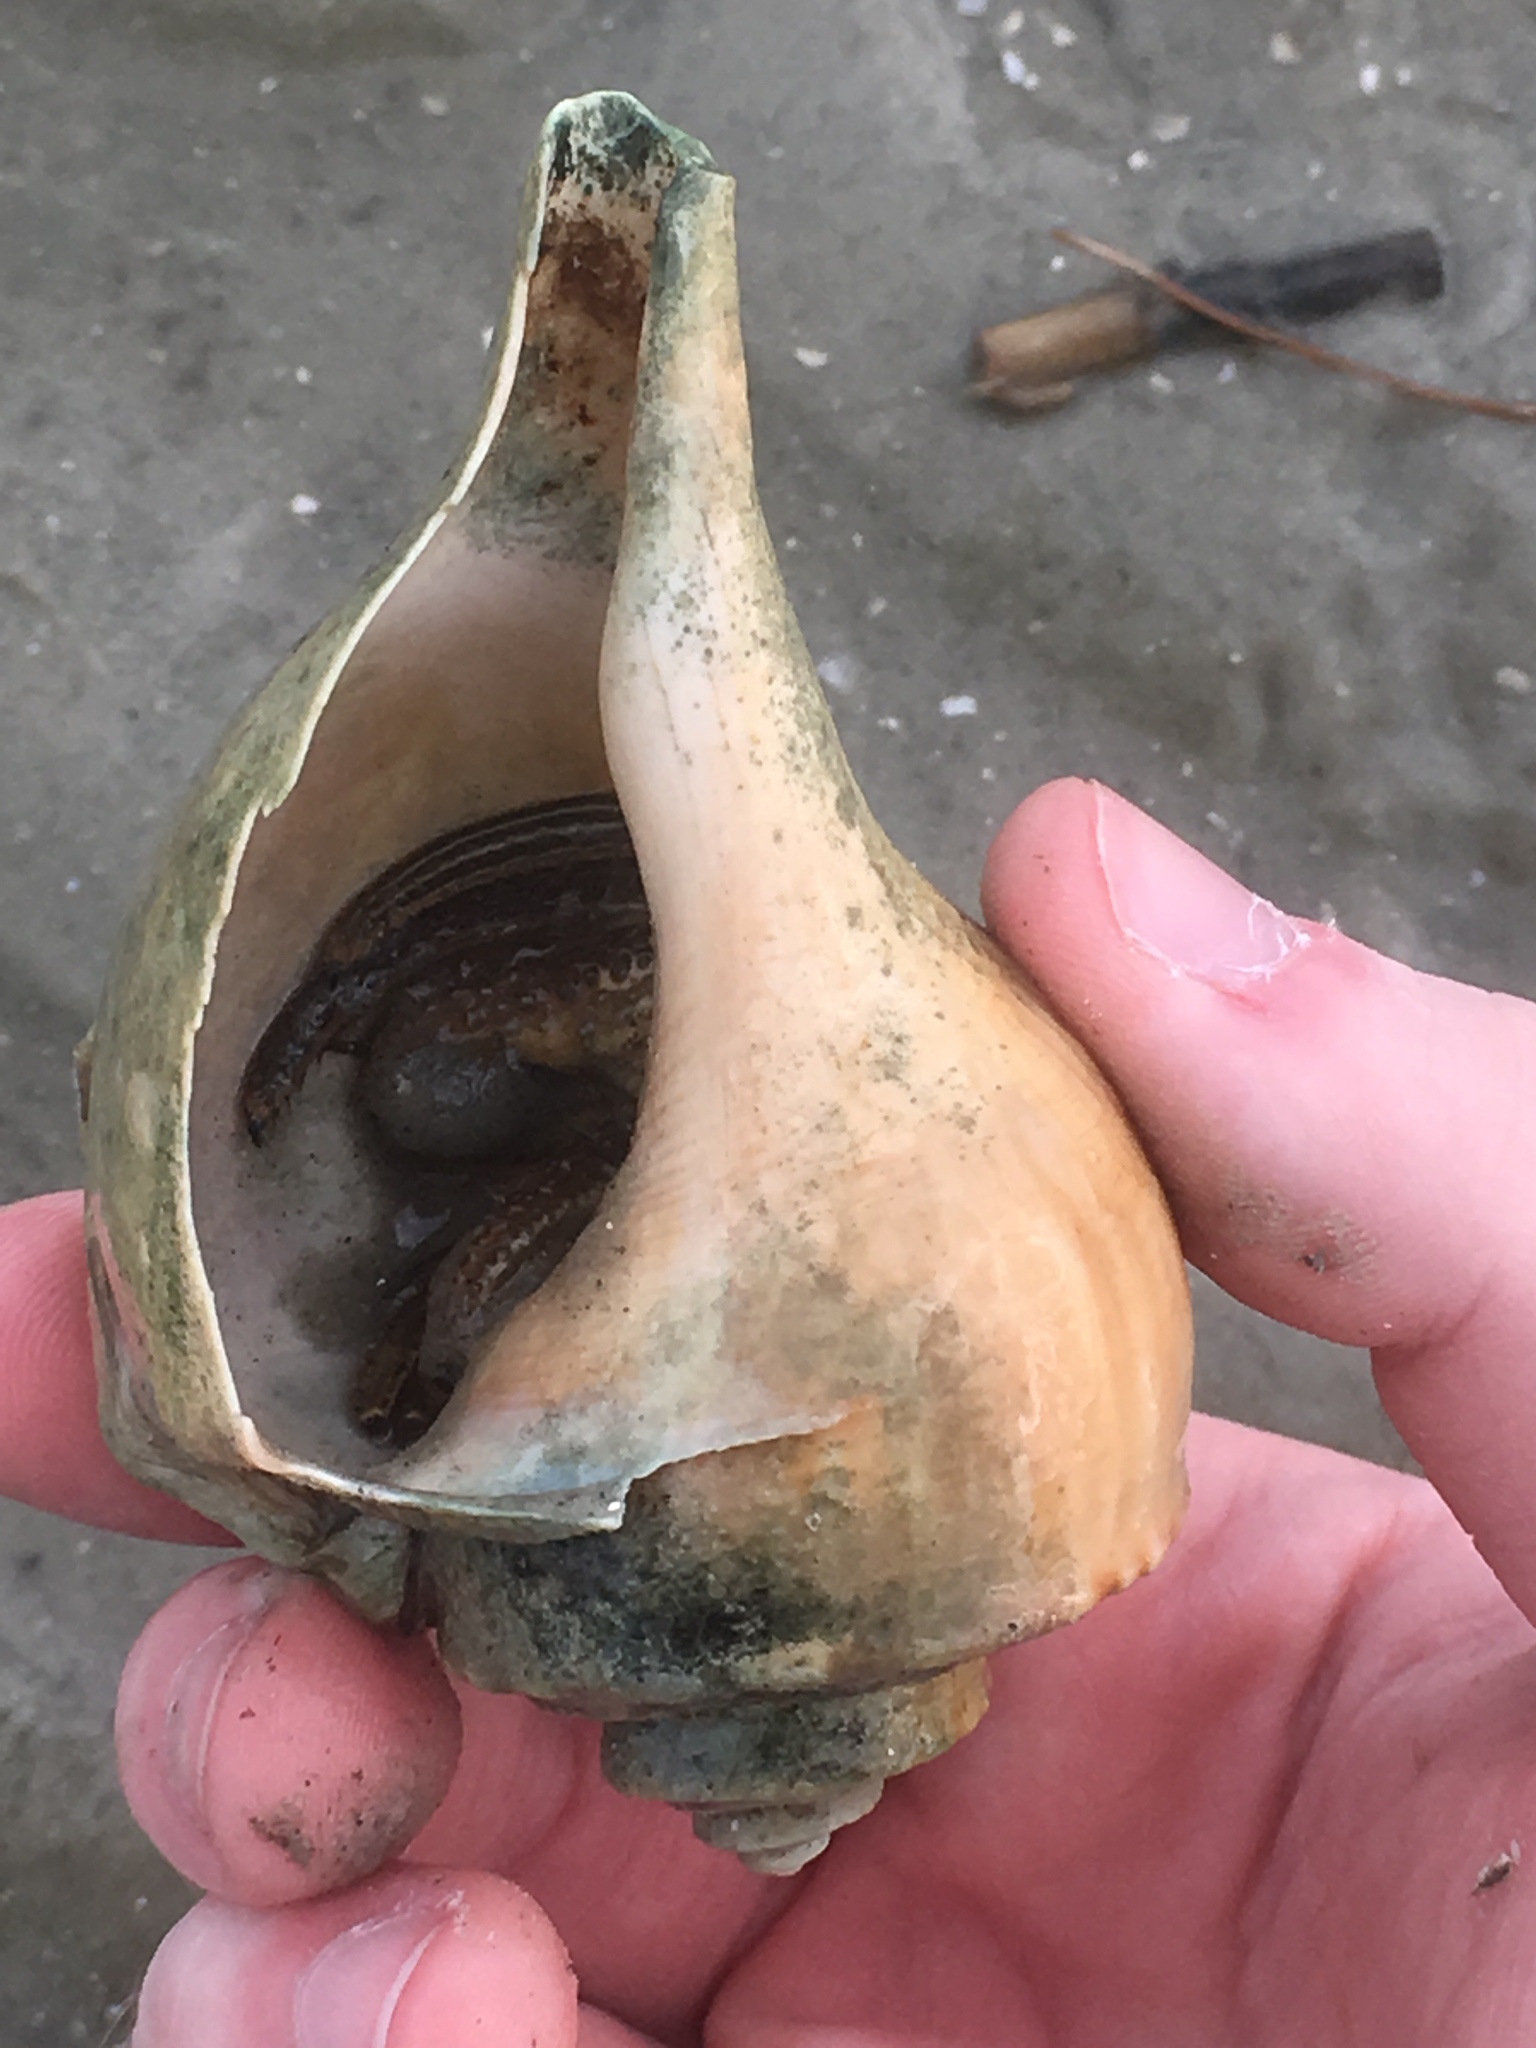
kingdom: Animalia
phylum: Mollusca
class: Gastropoda
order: Neogastropoda
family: Busyconidae
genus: Busycotypus
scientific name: Busycotypus canaliculatus
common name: Channeled whelk
